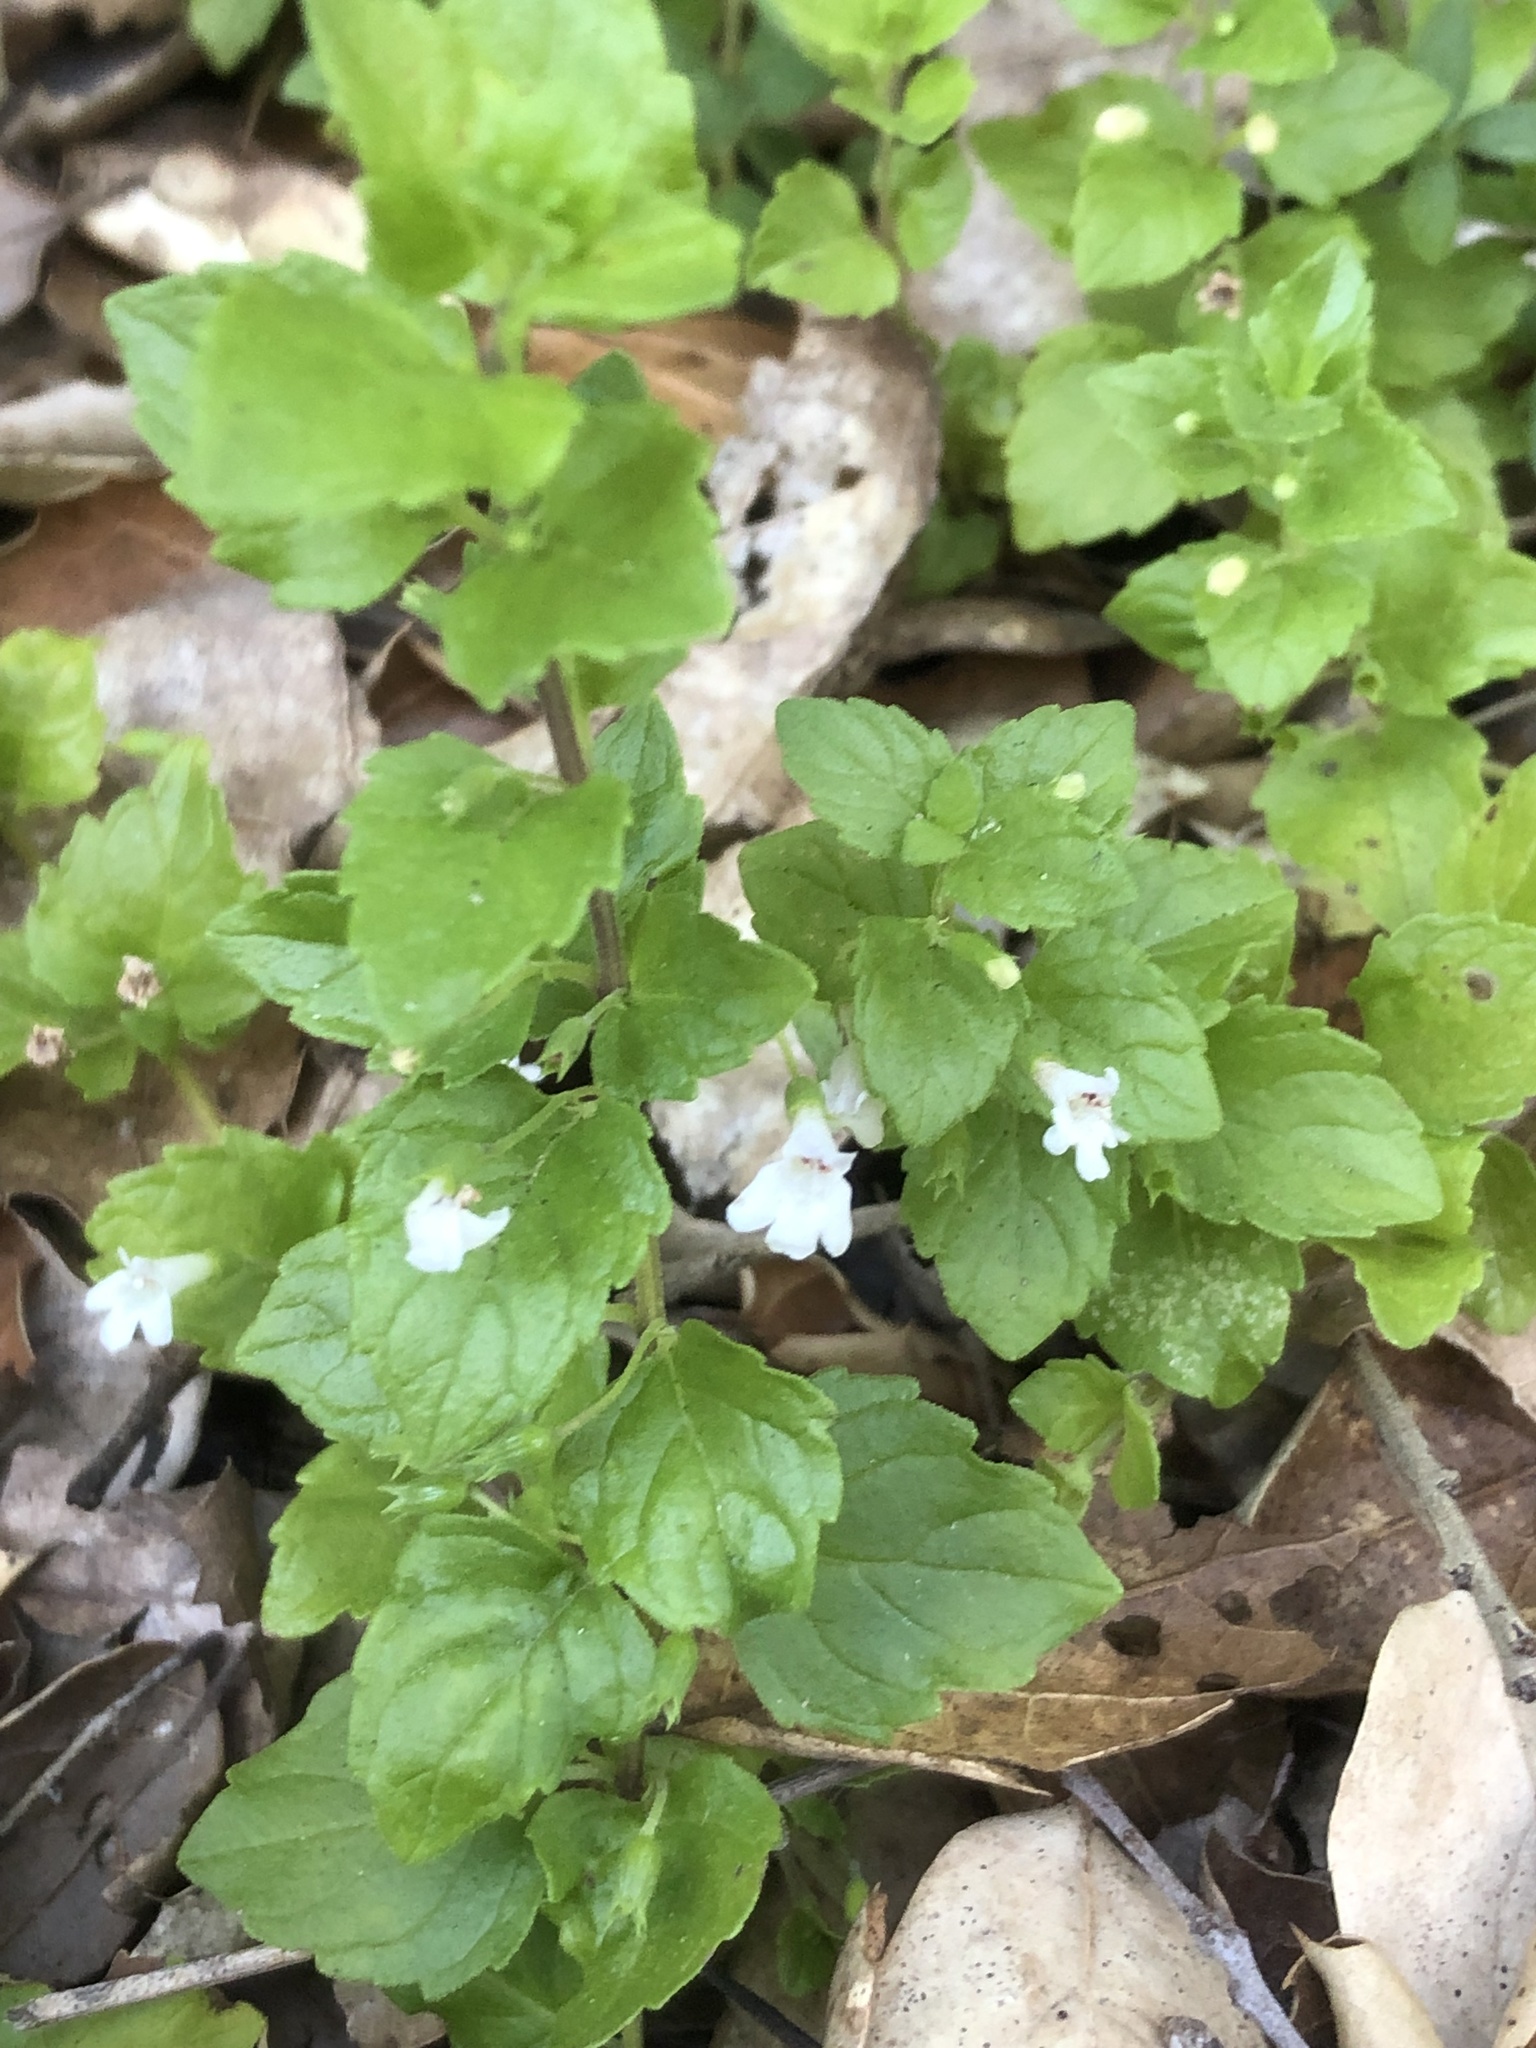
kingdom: Plantae
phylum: Tracheophyta
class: Magnoliopsida
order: Lamiales
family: Lamiaceae
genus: Micromeria
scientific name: Micromeria douglasii
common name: Yerba buena
